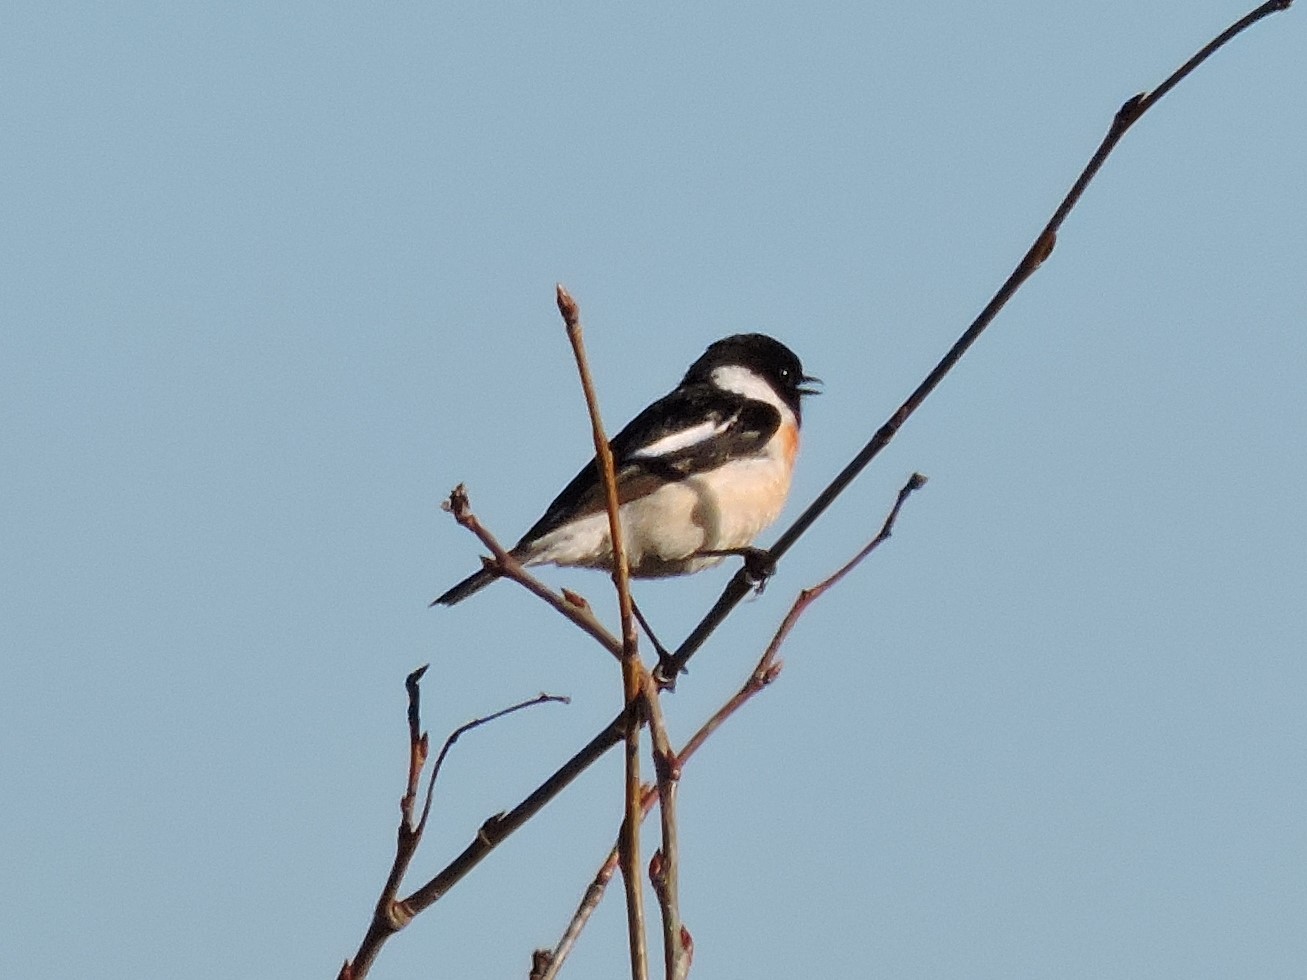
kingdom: Animalia
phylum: Chordata
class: Aves
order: Passeriformes
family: Muscicapidae
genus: Saxicola
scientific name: Saxicola maurus
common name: Siberian stonechat
